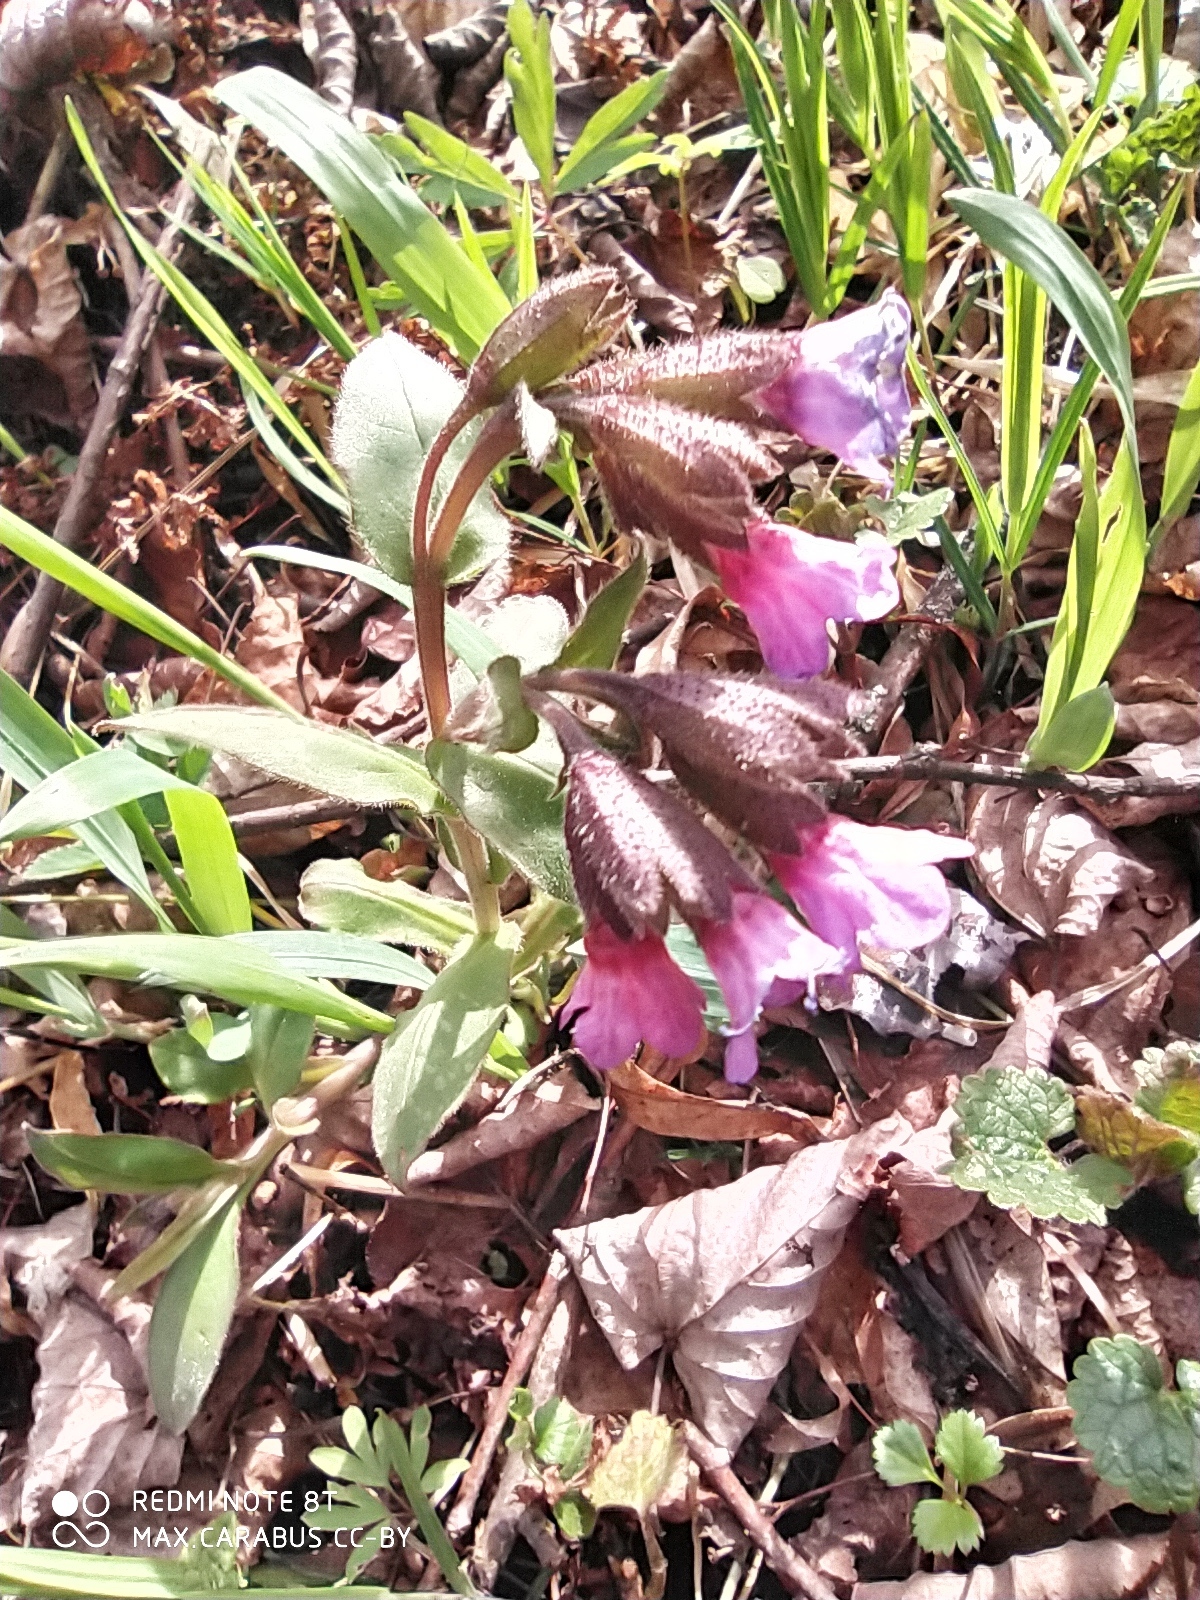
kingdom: Plantae
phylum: Tracheophyta
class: Magnoliopsida
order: Boraginales
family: Boraginaceae
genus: Pulmonaria
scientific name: Pulmonaria obscura
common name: Suffolk lungwort
